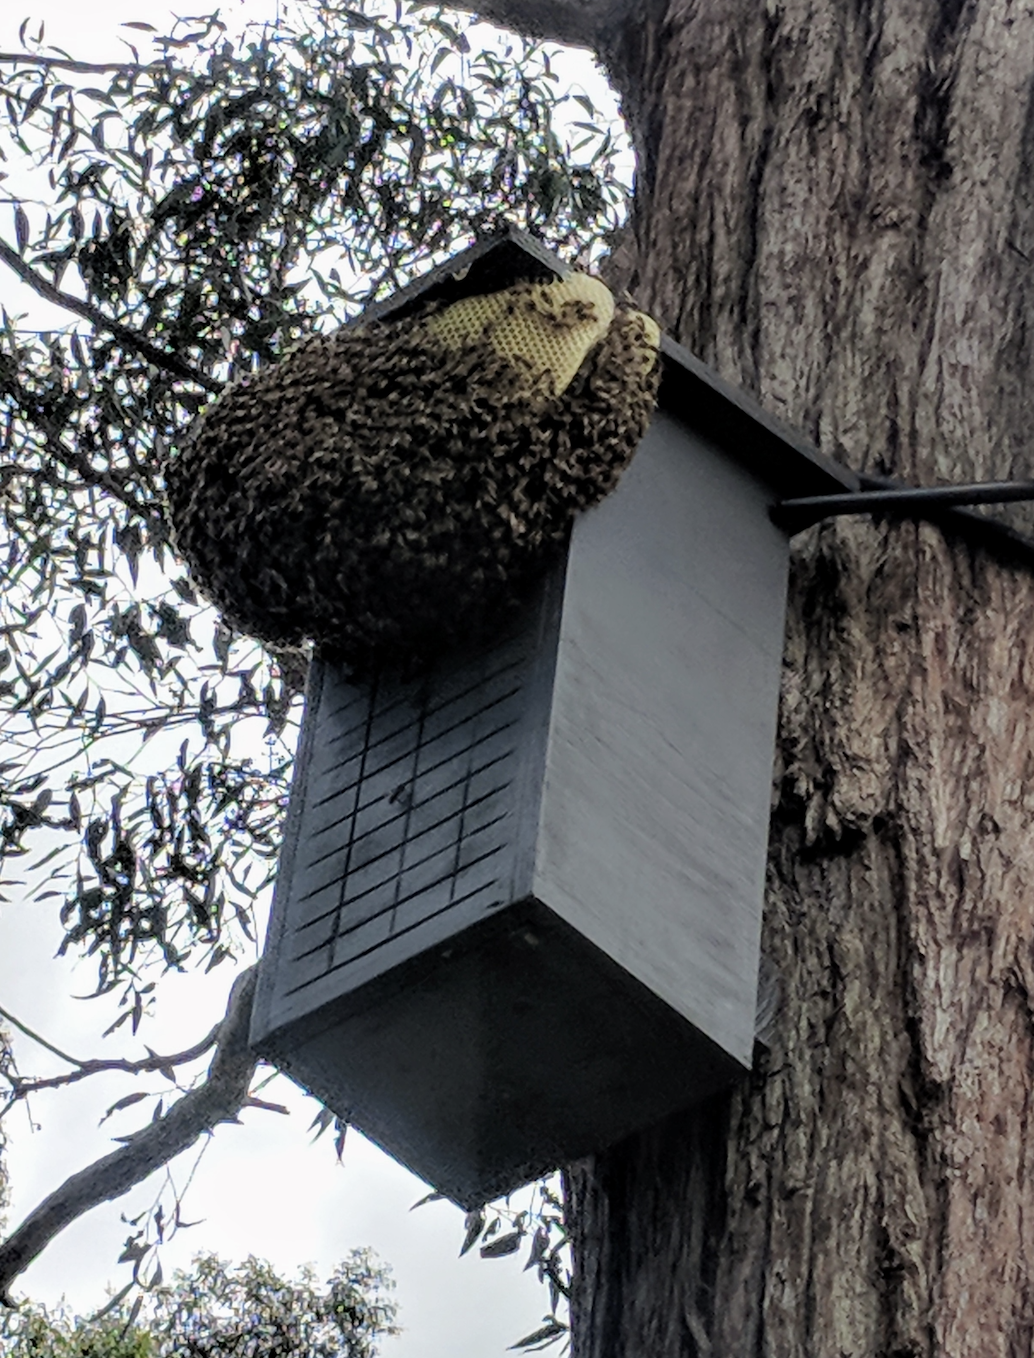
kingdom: Animalia
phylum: Arthropoda
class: Insecta
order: Hymenoptera
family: Apidae
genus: Apis
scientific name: Apis mellifera
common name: Honey bee
